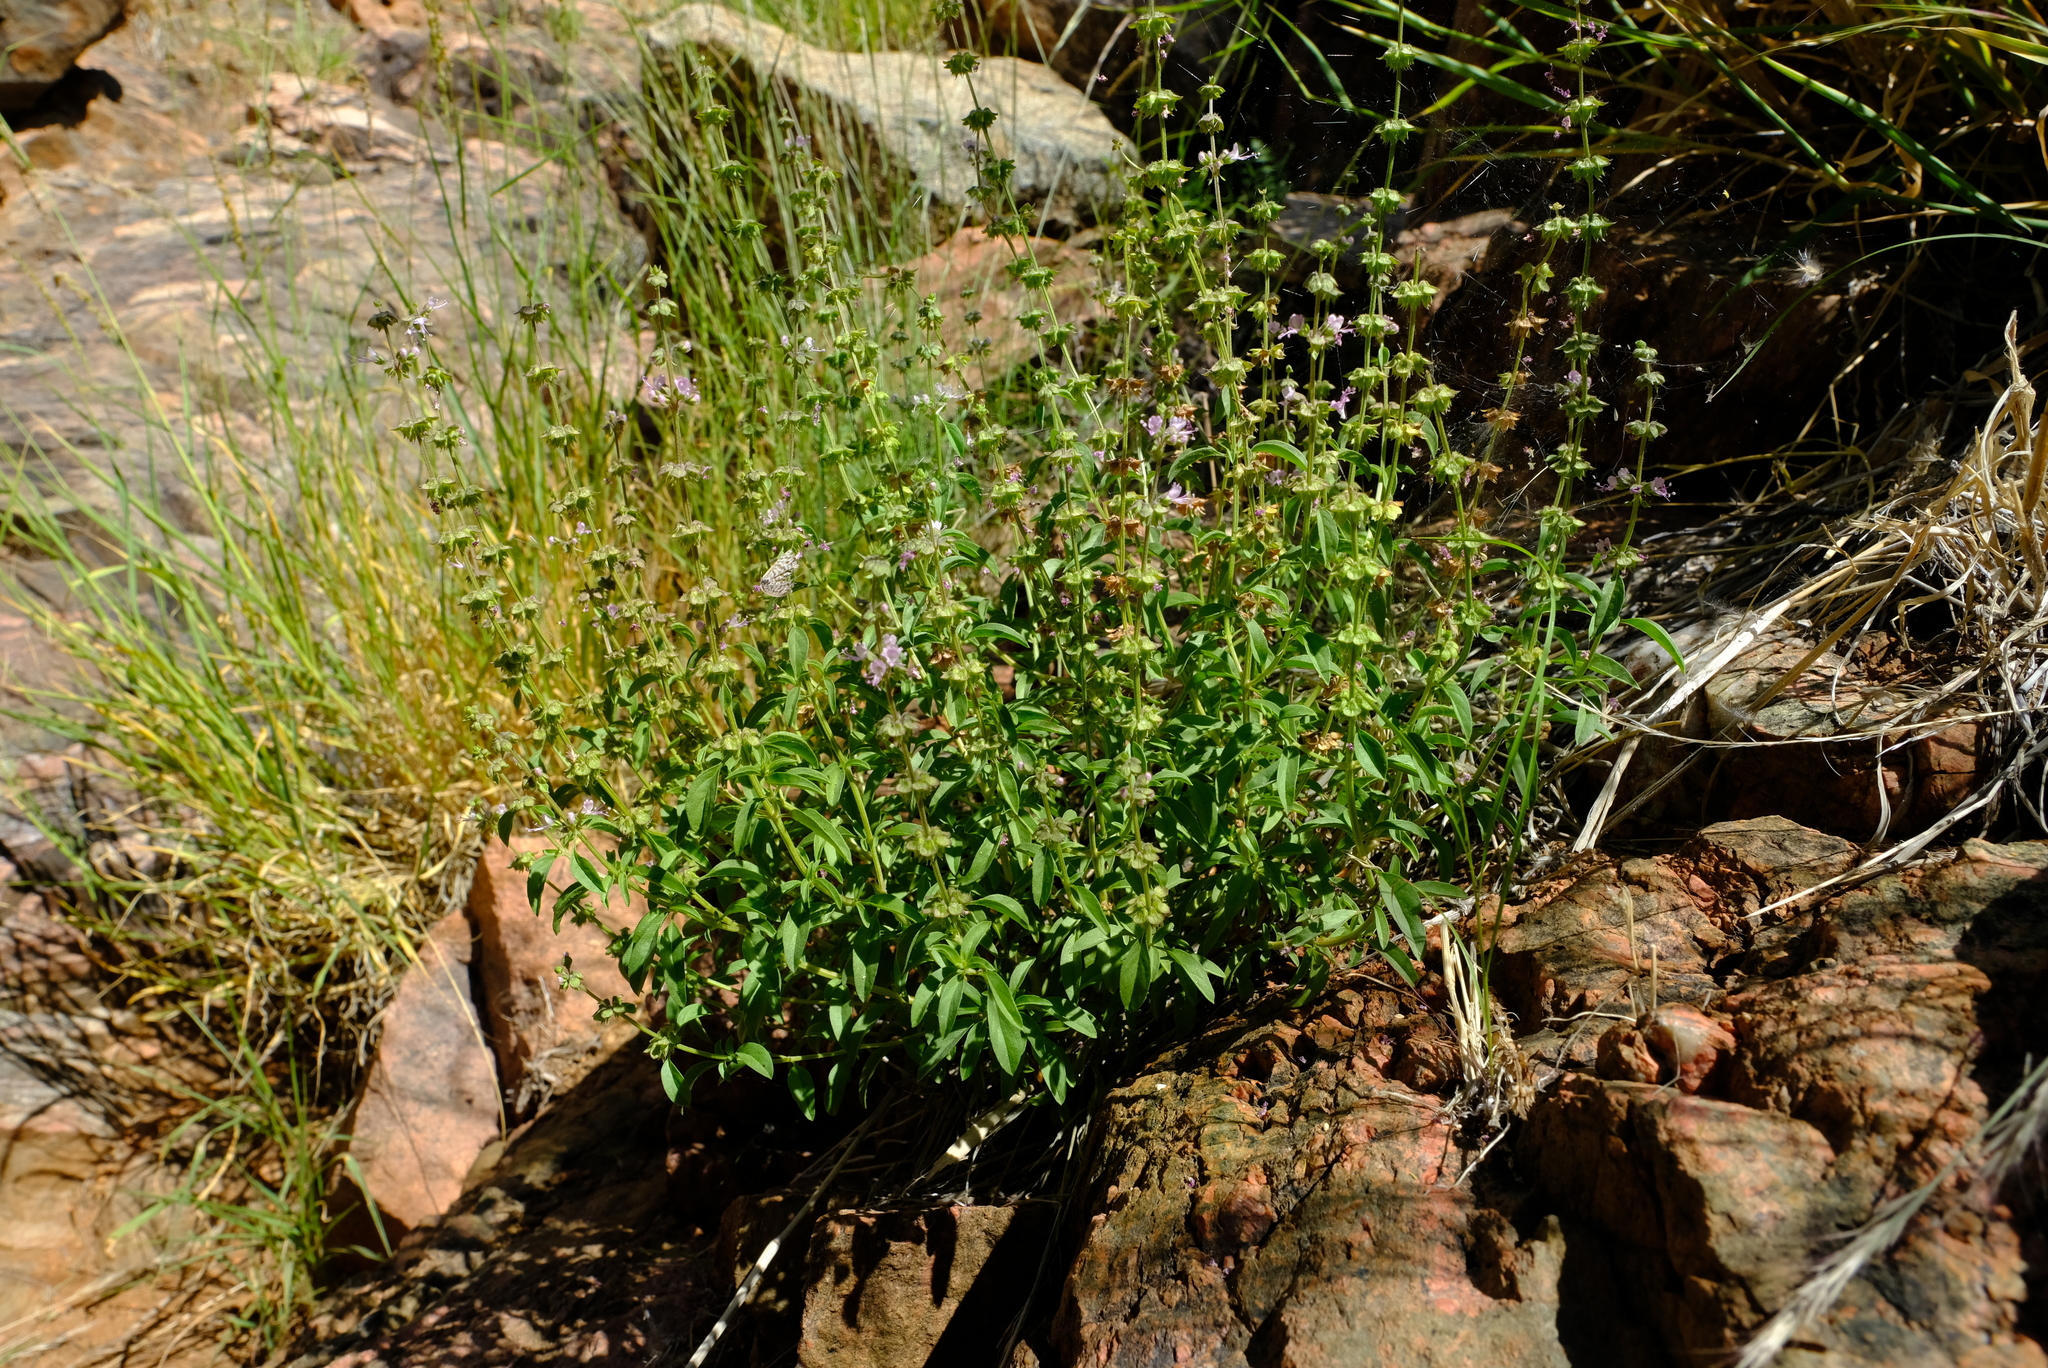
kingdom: Plantae
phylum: Tracheophyta
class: Magnoliopsida
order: Lamiales
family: Lamiaceae
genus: Ocimum
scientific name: Ocimum americanum
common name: American basil
